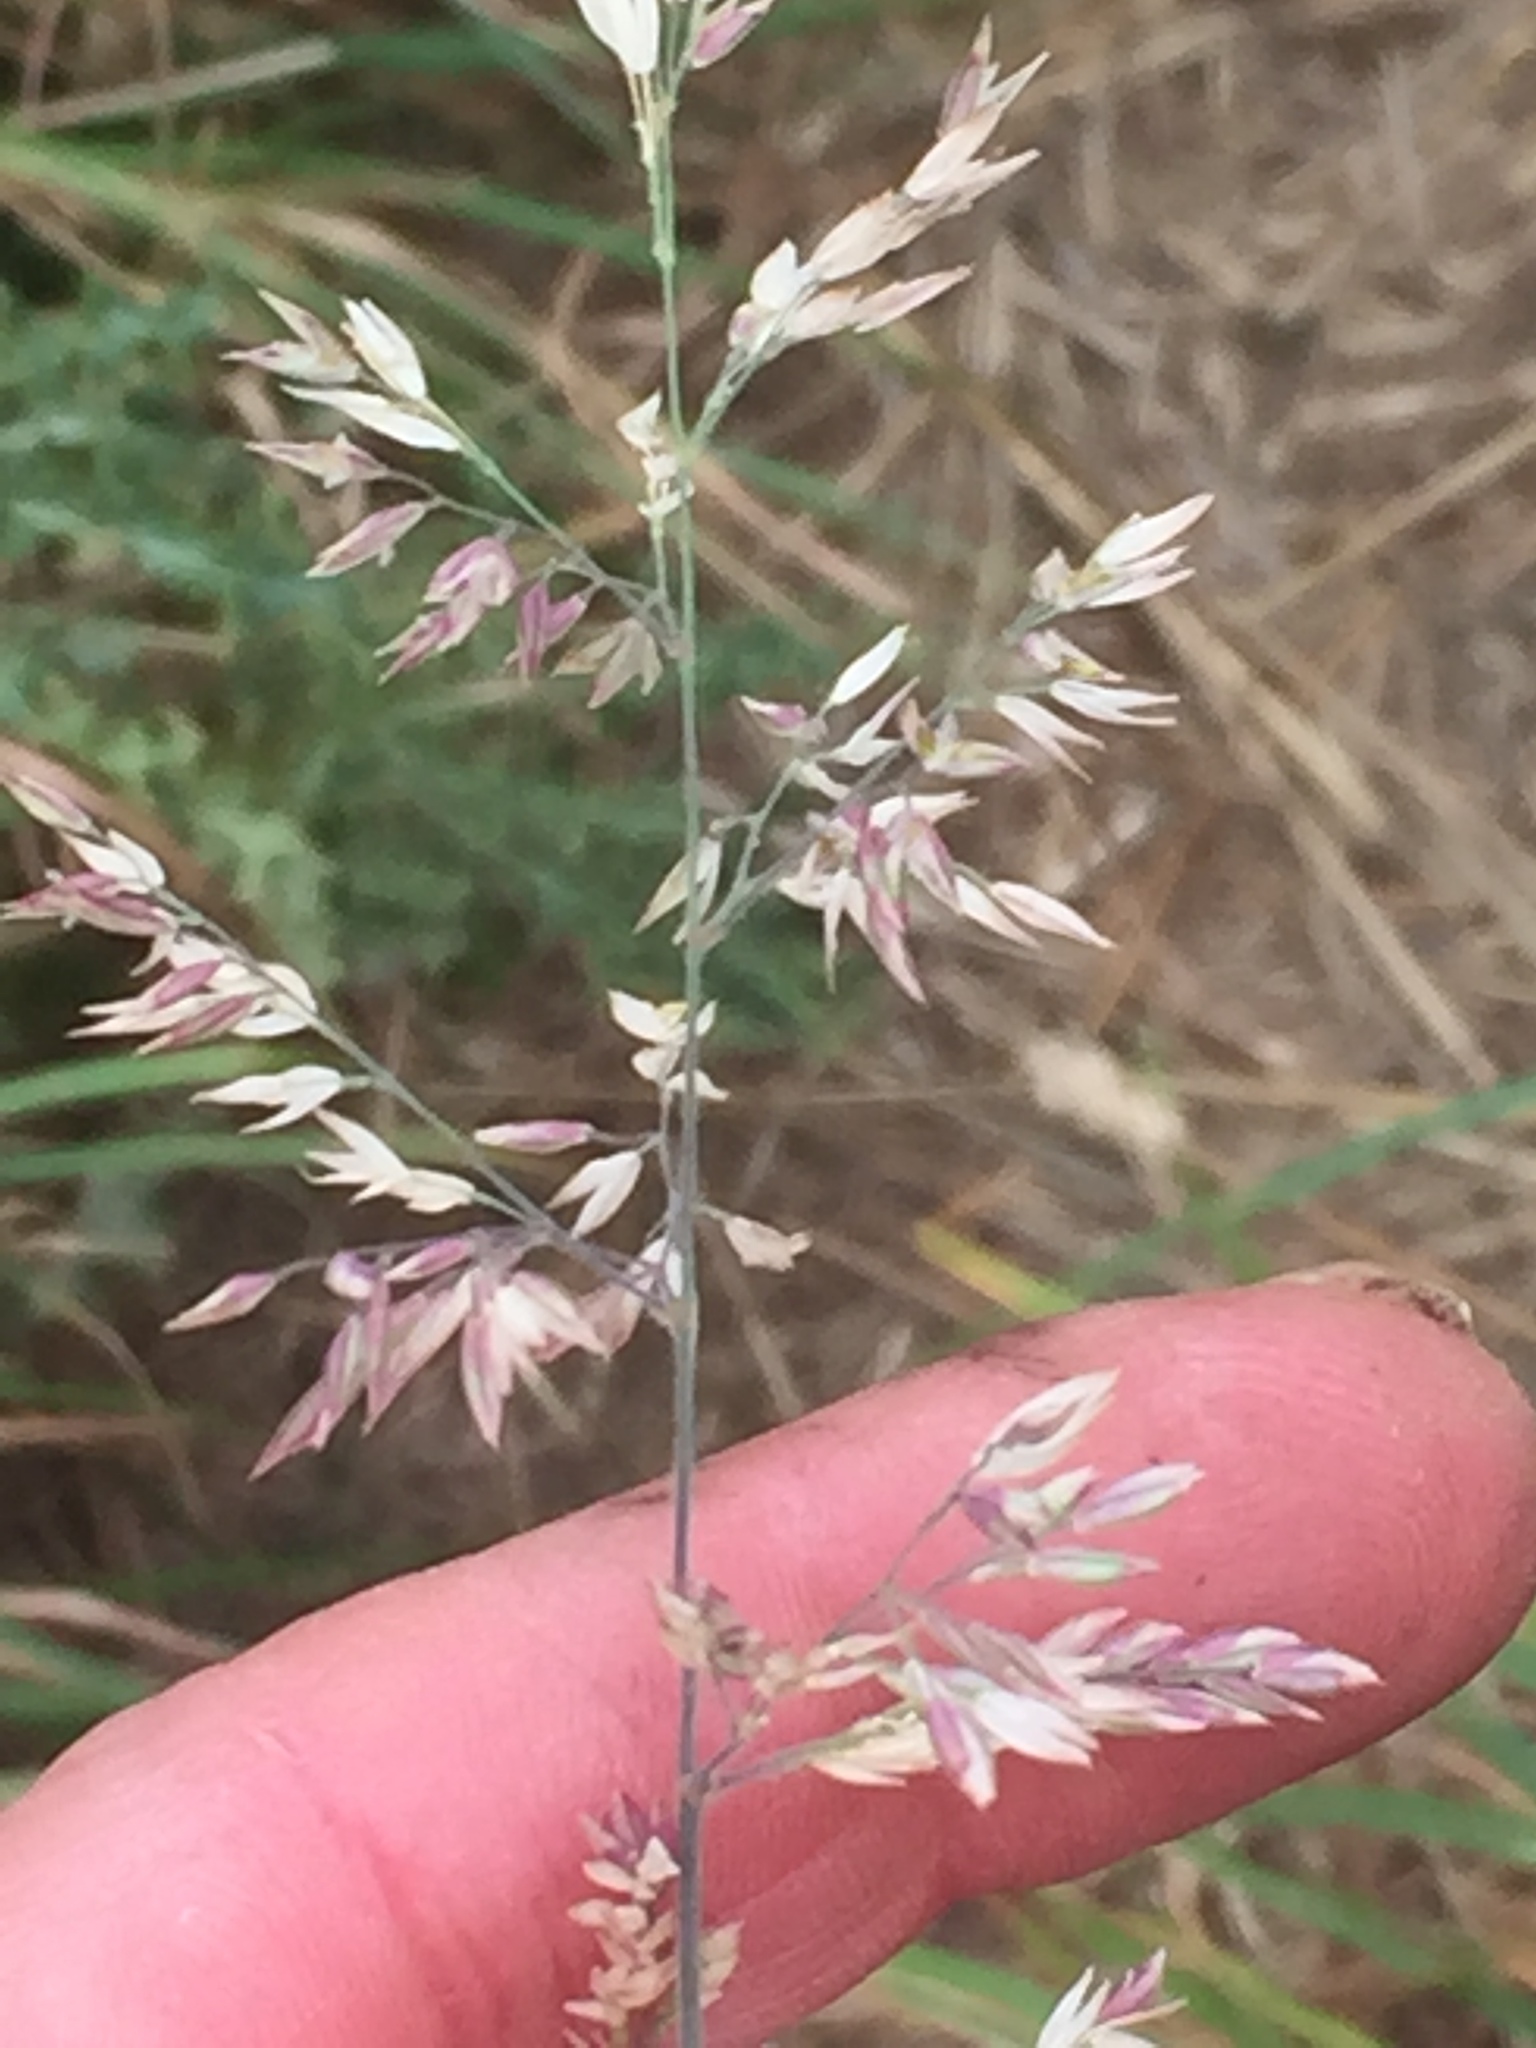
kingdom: Plantae
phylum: Tracheophyta
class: Liliopsida
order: Poales
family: Poaceae
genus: Holcus
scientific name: Holcus lanatus
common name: Yorkshire-fog
